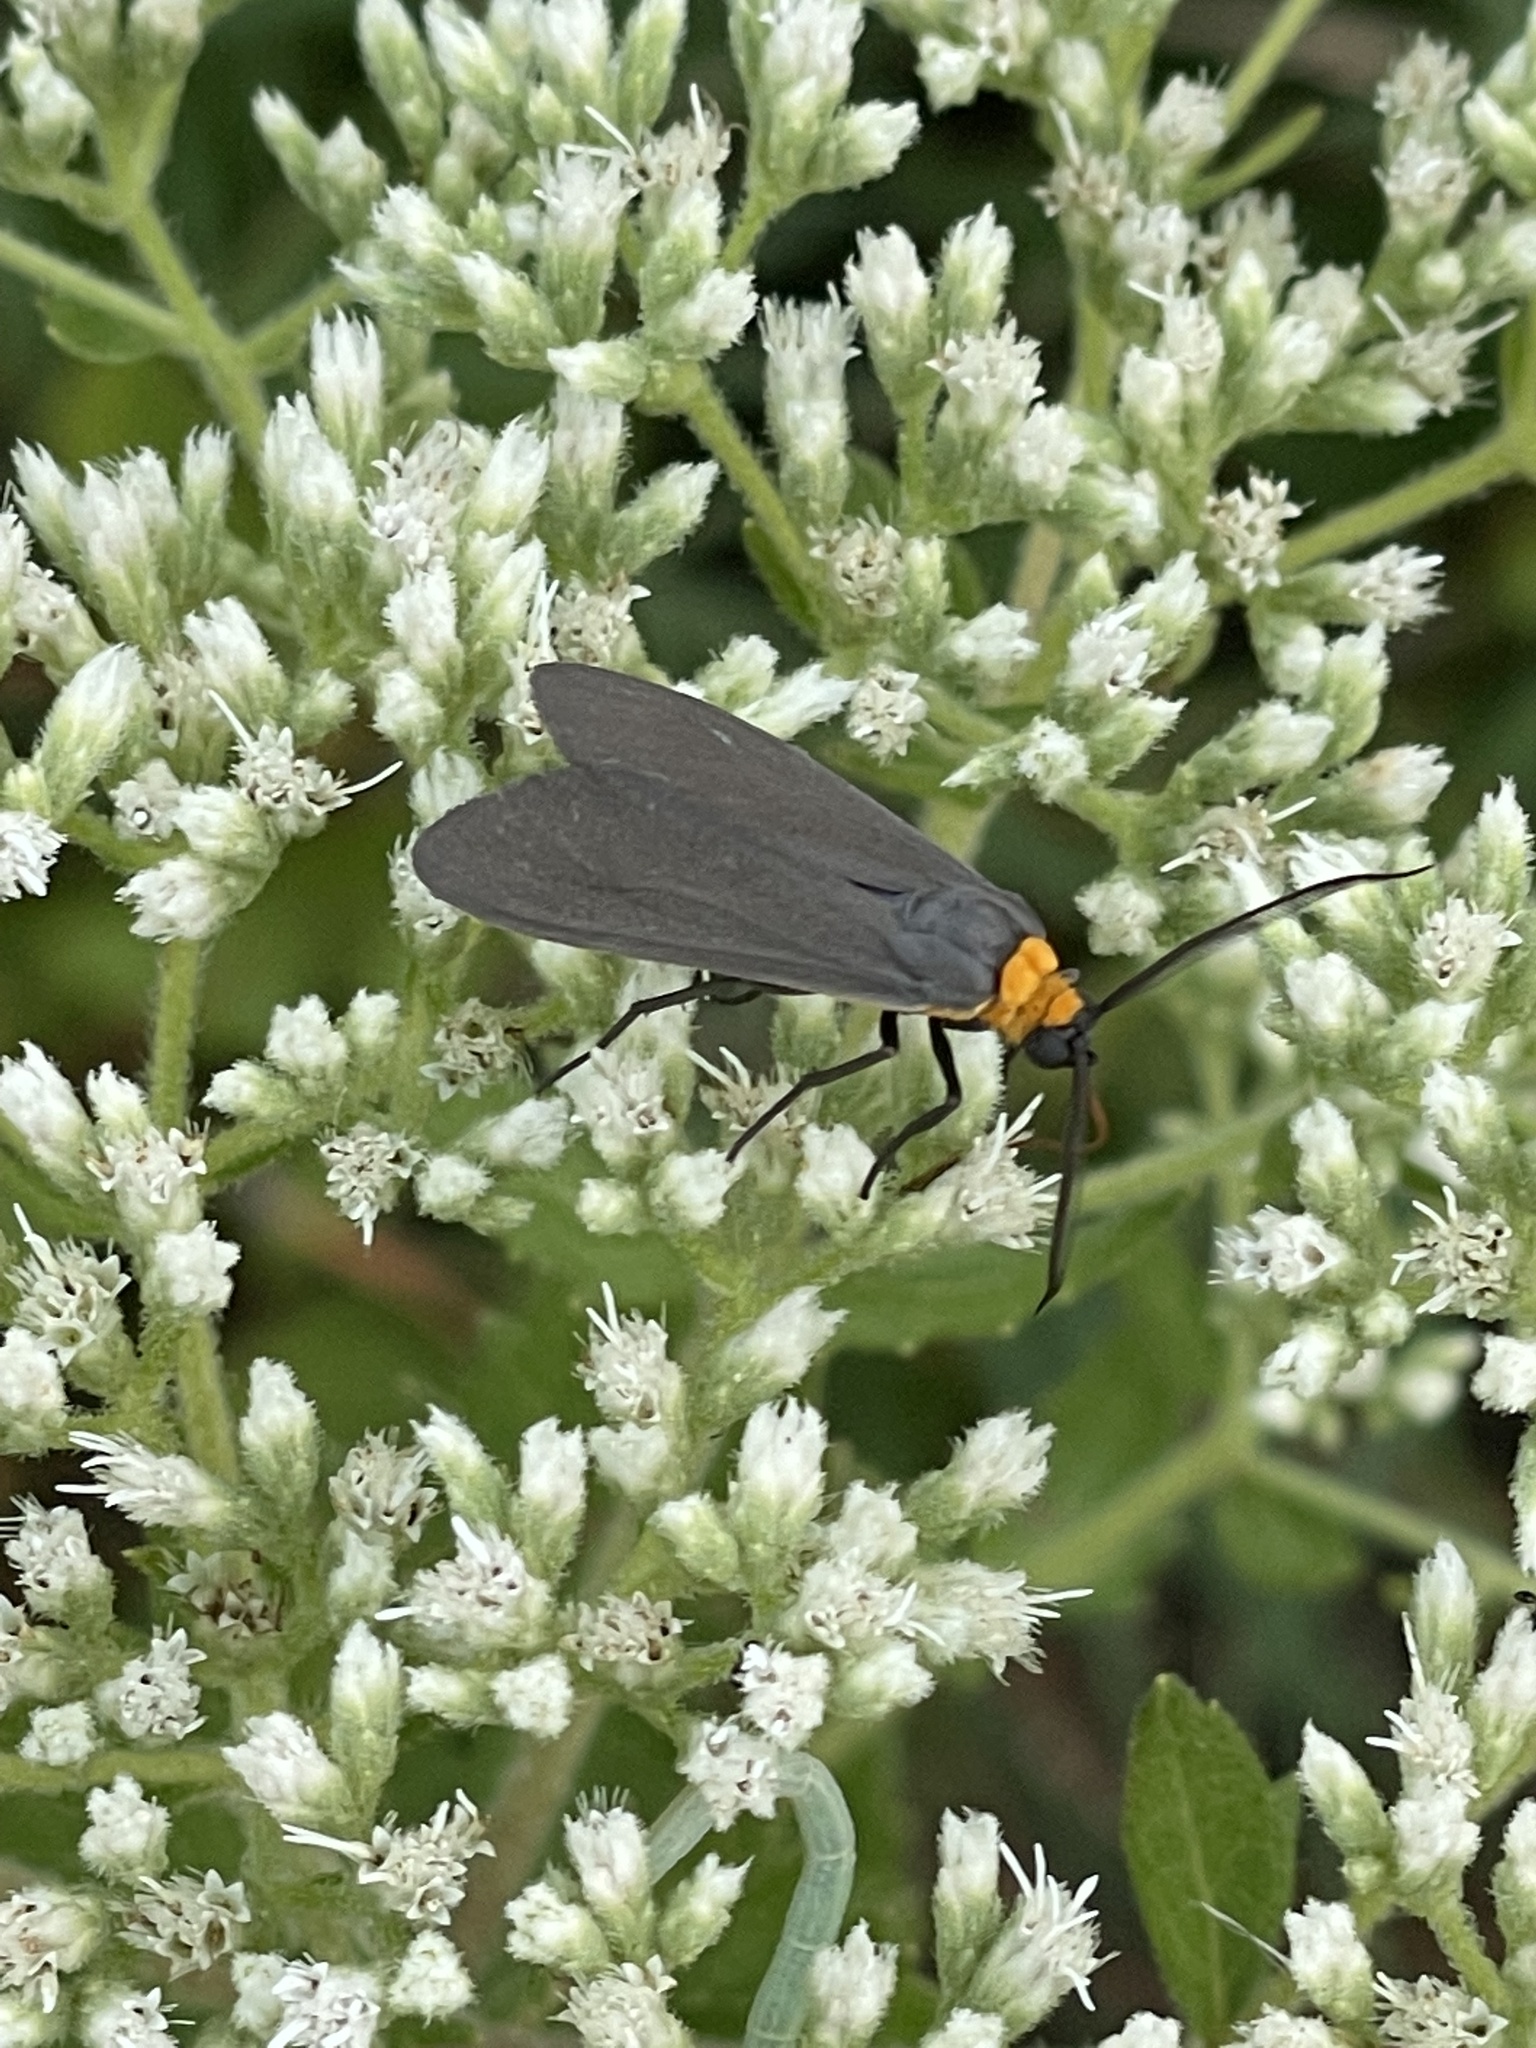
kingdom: Animalia
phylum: Arthropoda
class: Insecta
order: Lepidoptera
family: Erebidae
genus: Cisseps
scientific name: Cisseps fulvicollis
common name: Yellow-collared scape moth
